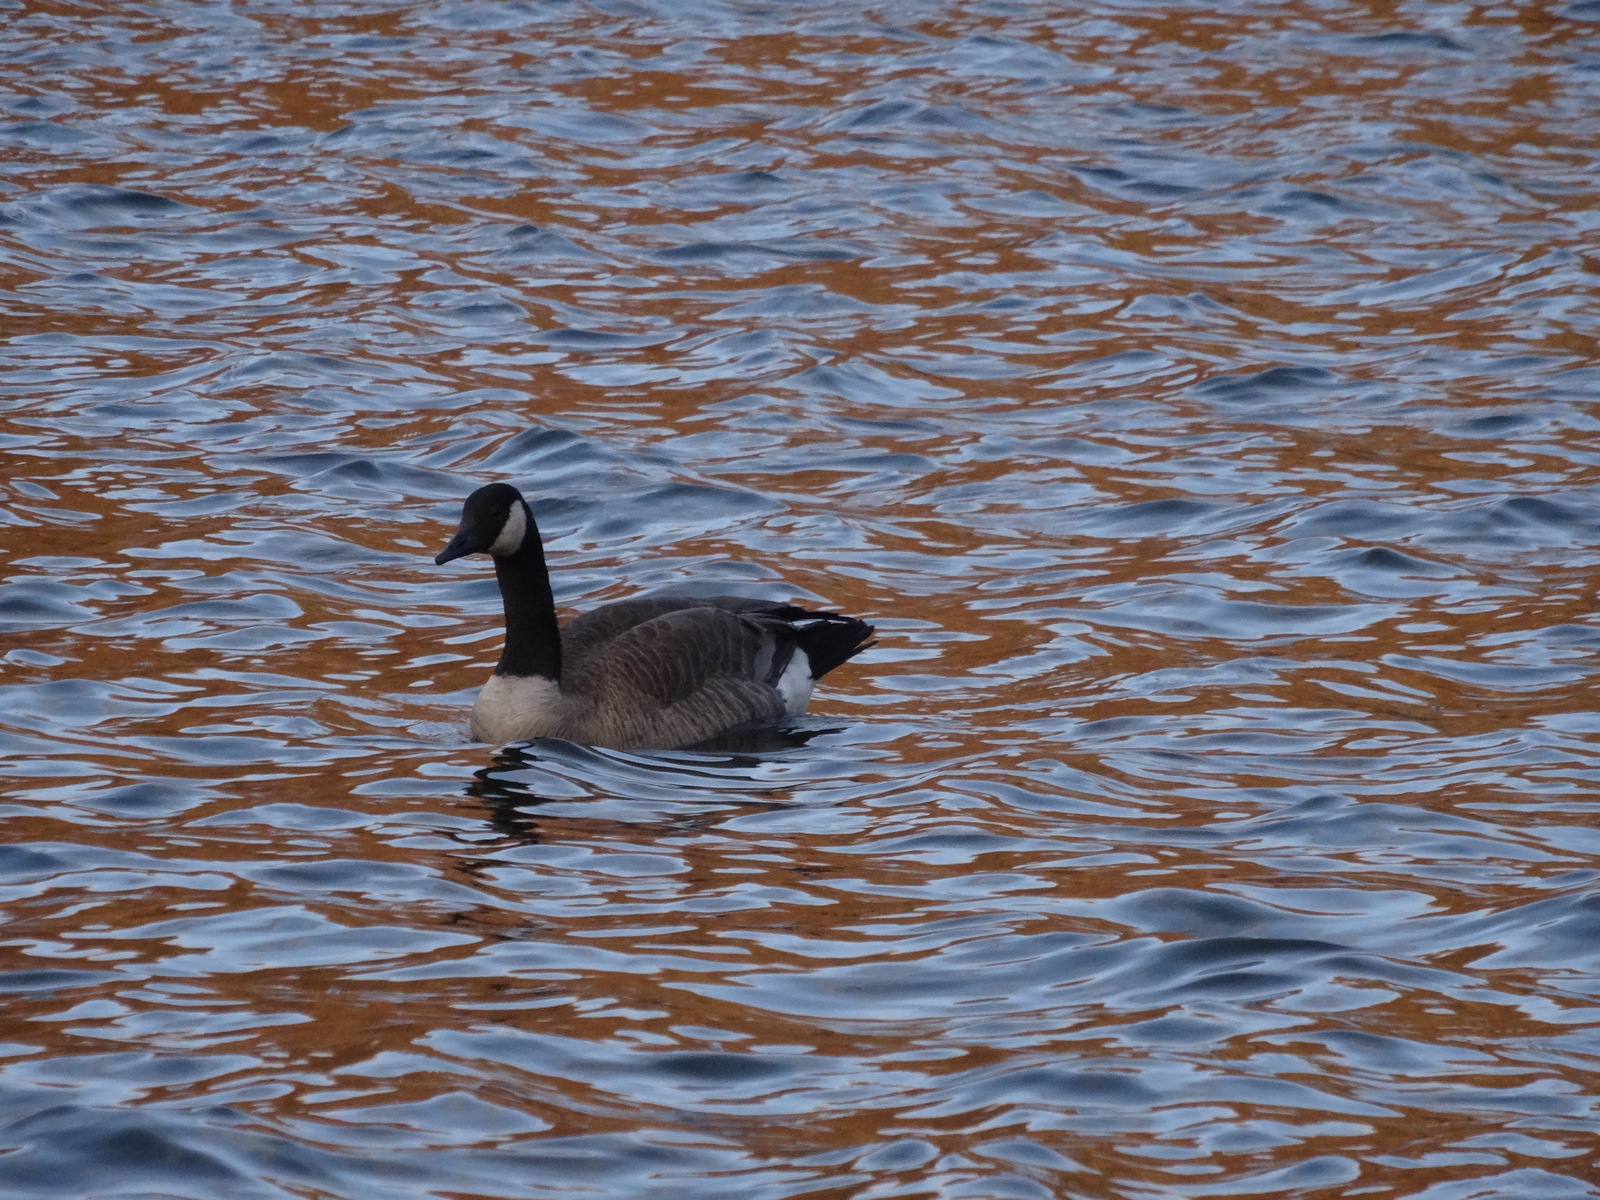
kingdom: Animalia
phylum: Chordata
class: Aves
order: Anseriformes
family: Anatidae
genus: Branta
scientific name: Branta canadensis
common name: Canada goose
